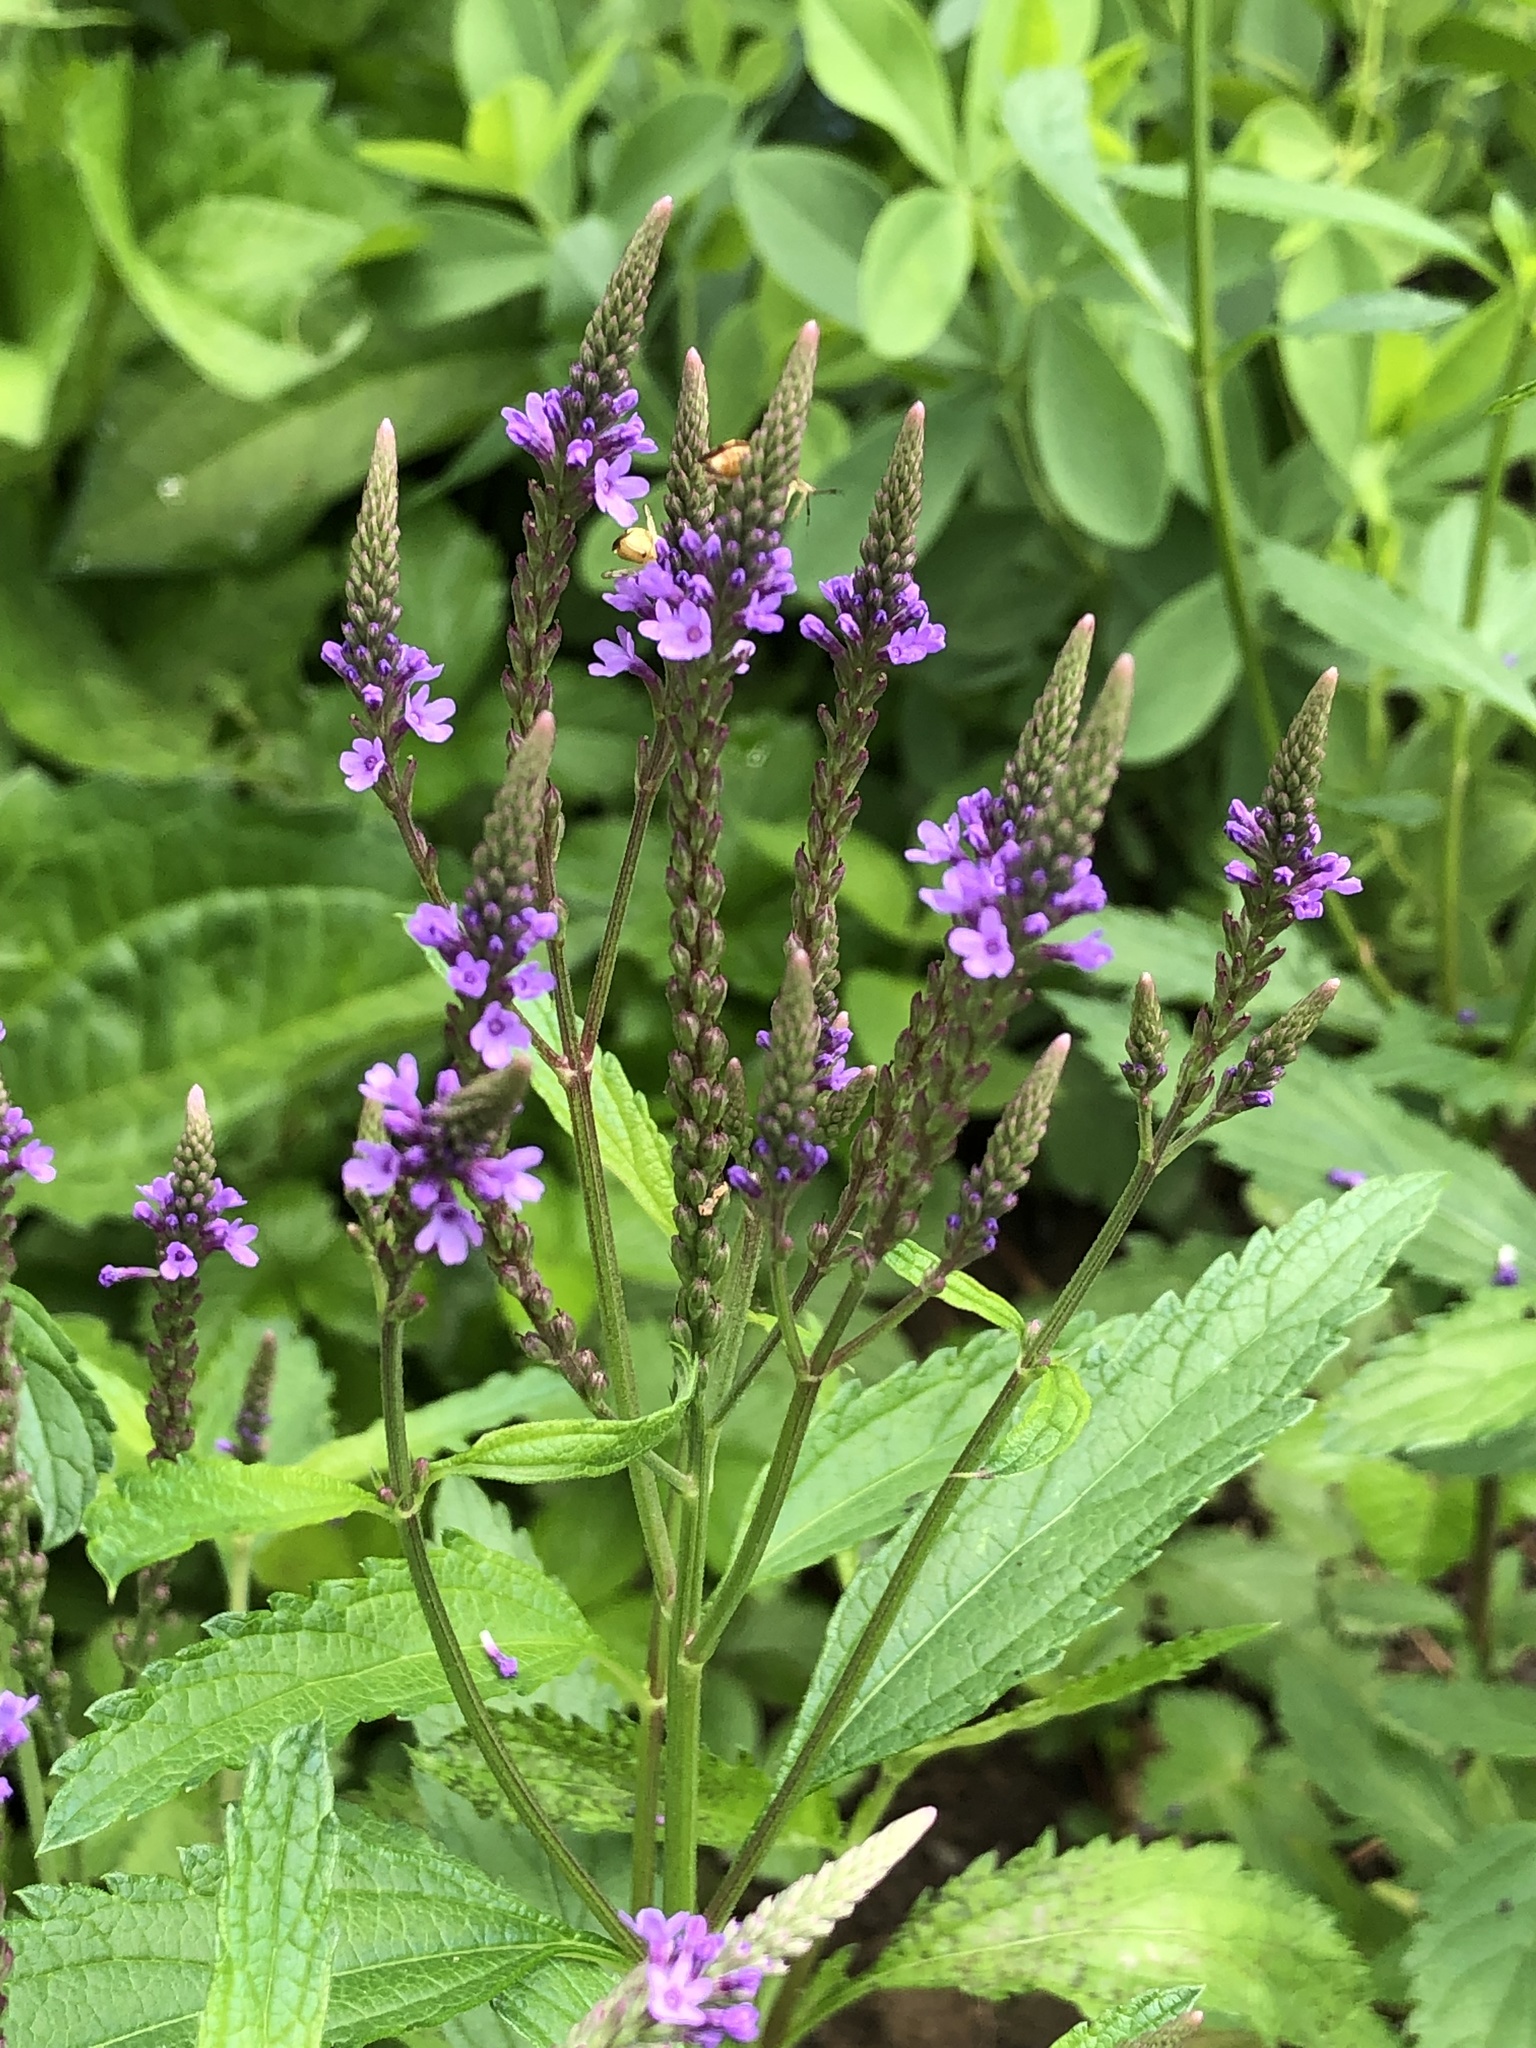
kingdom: Plantae
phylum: Tracheophyta
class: Magnoliopsida
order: Lamiales
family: Verbenaceae
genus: Verbena
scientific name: Verbena hastata
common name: American blue vervain
